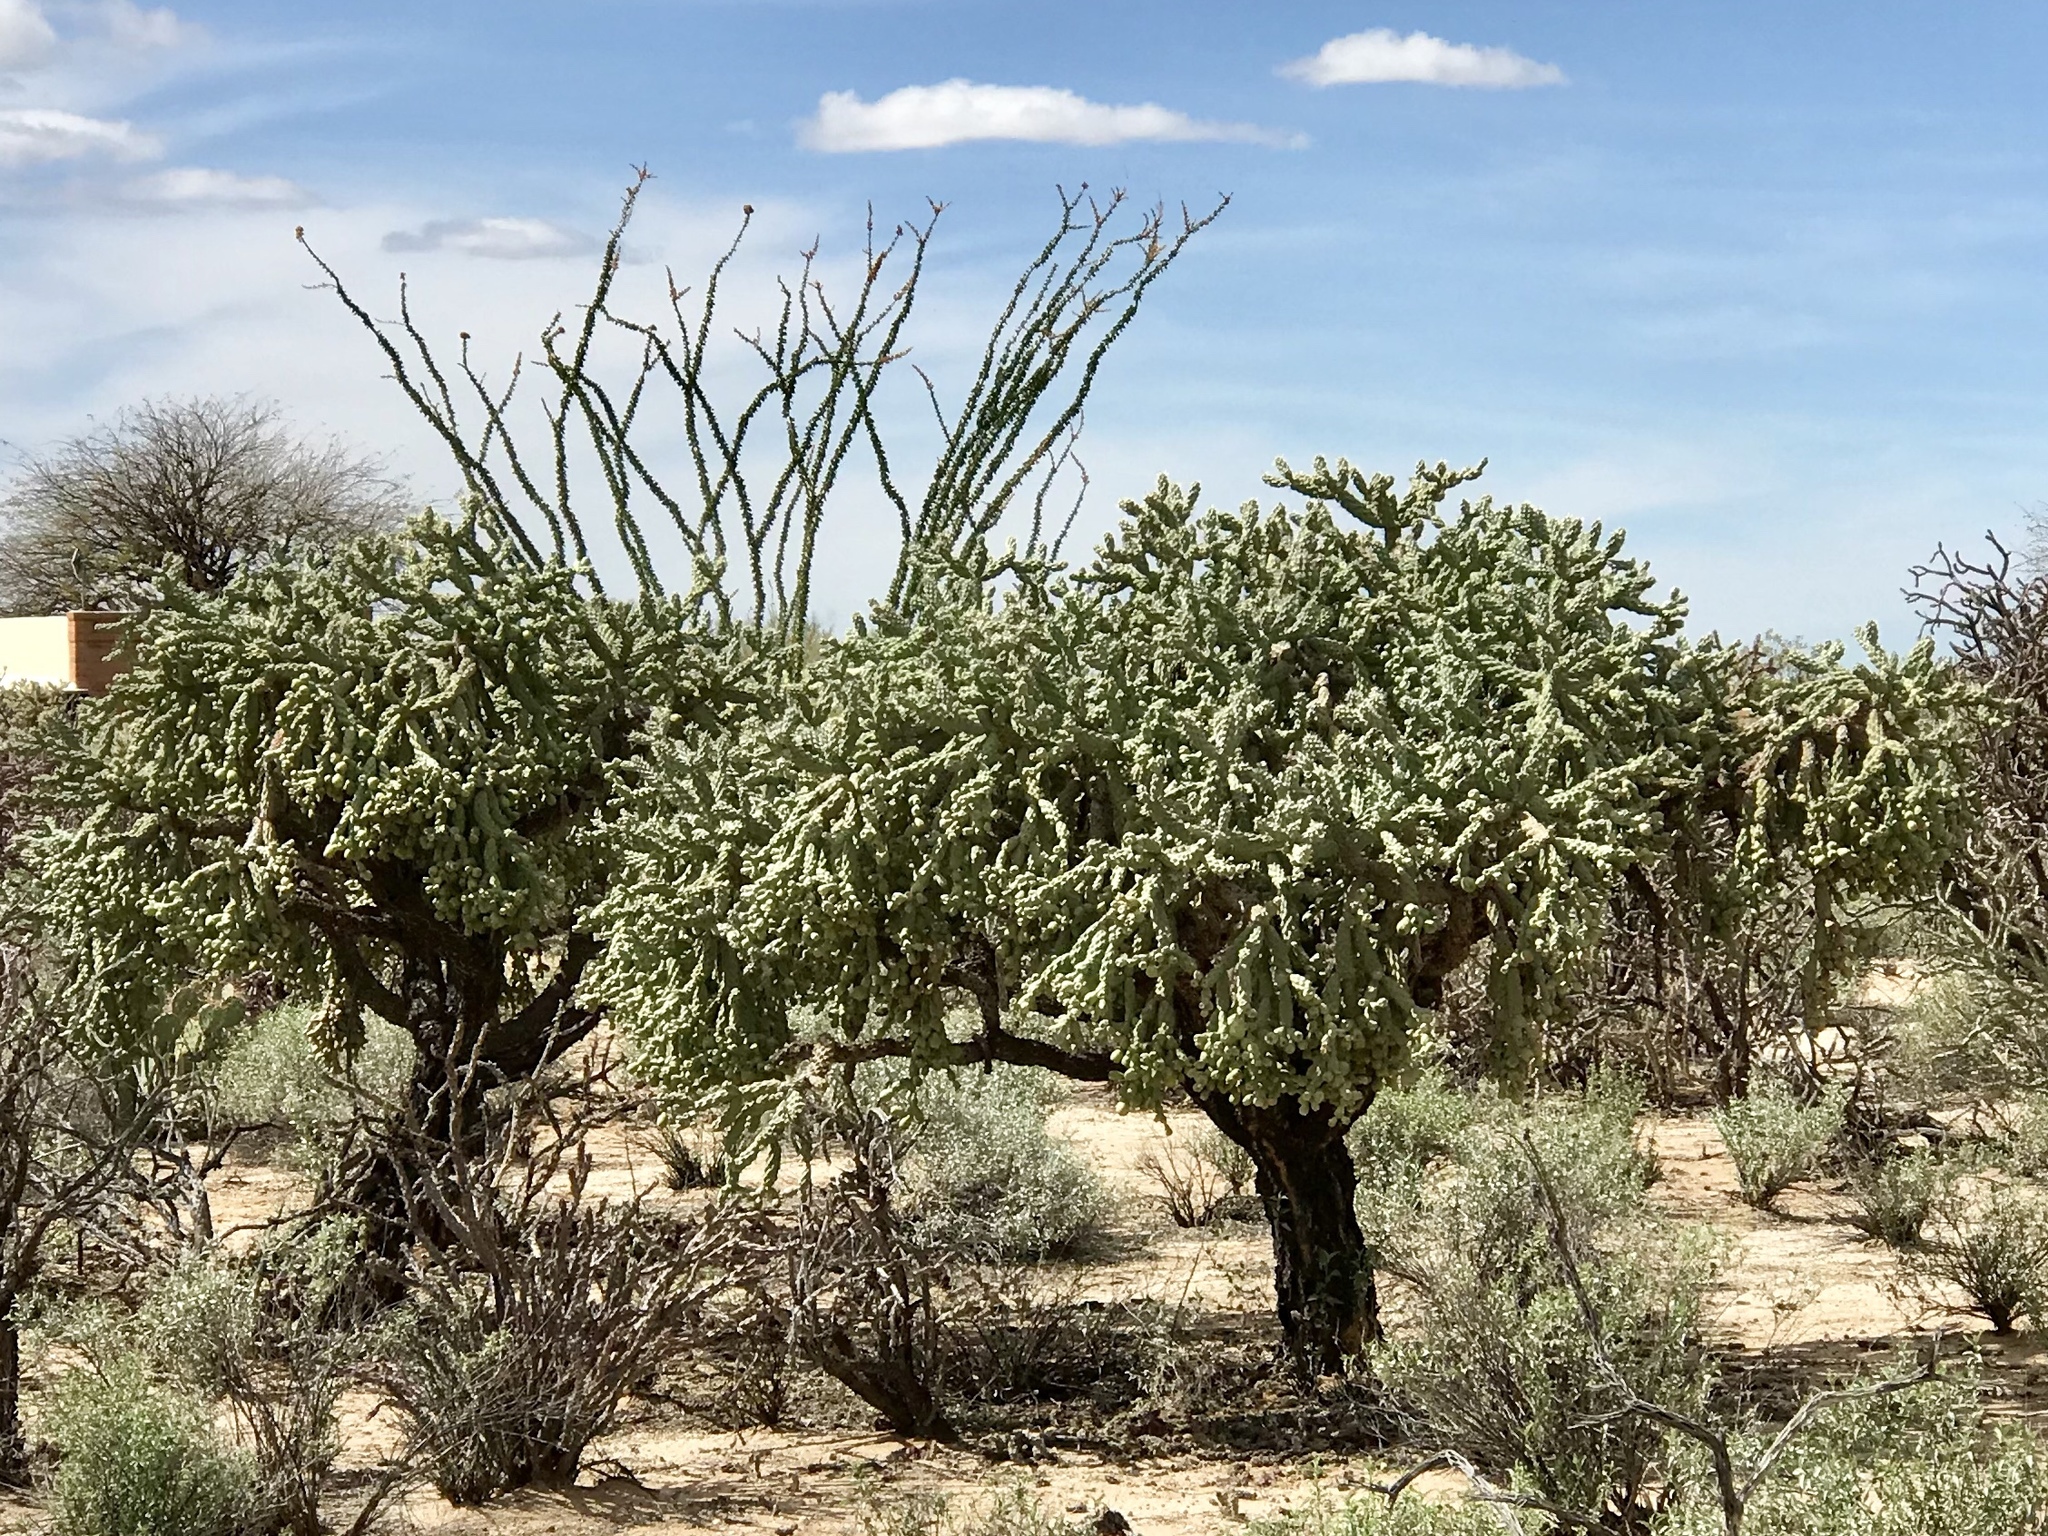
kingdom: Plantae
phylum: Tracheophyta
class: Magnoliopsida
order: Caryophyllales
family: Cactaceae
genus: Cylindropuntia
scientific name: Cylindropuntia fulgida
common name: Jumping cholla
